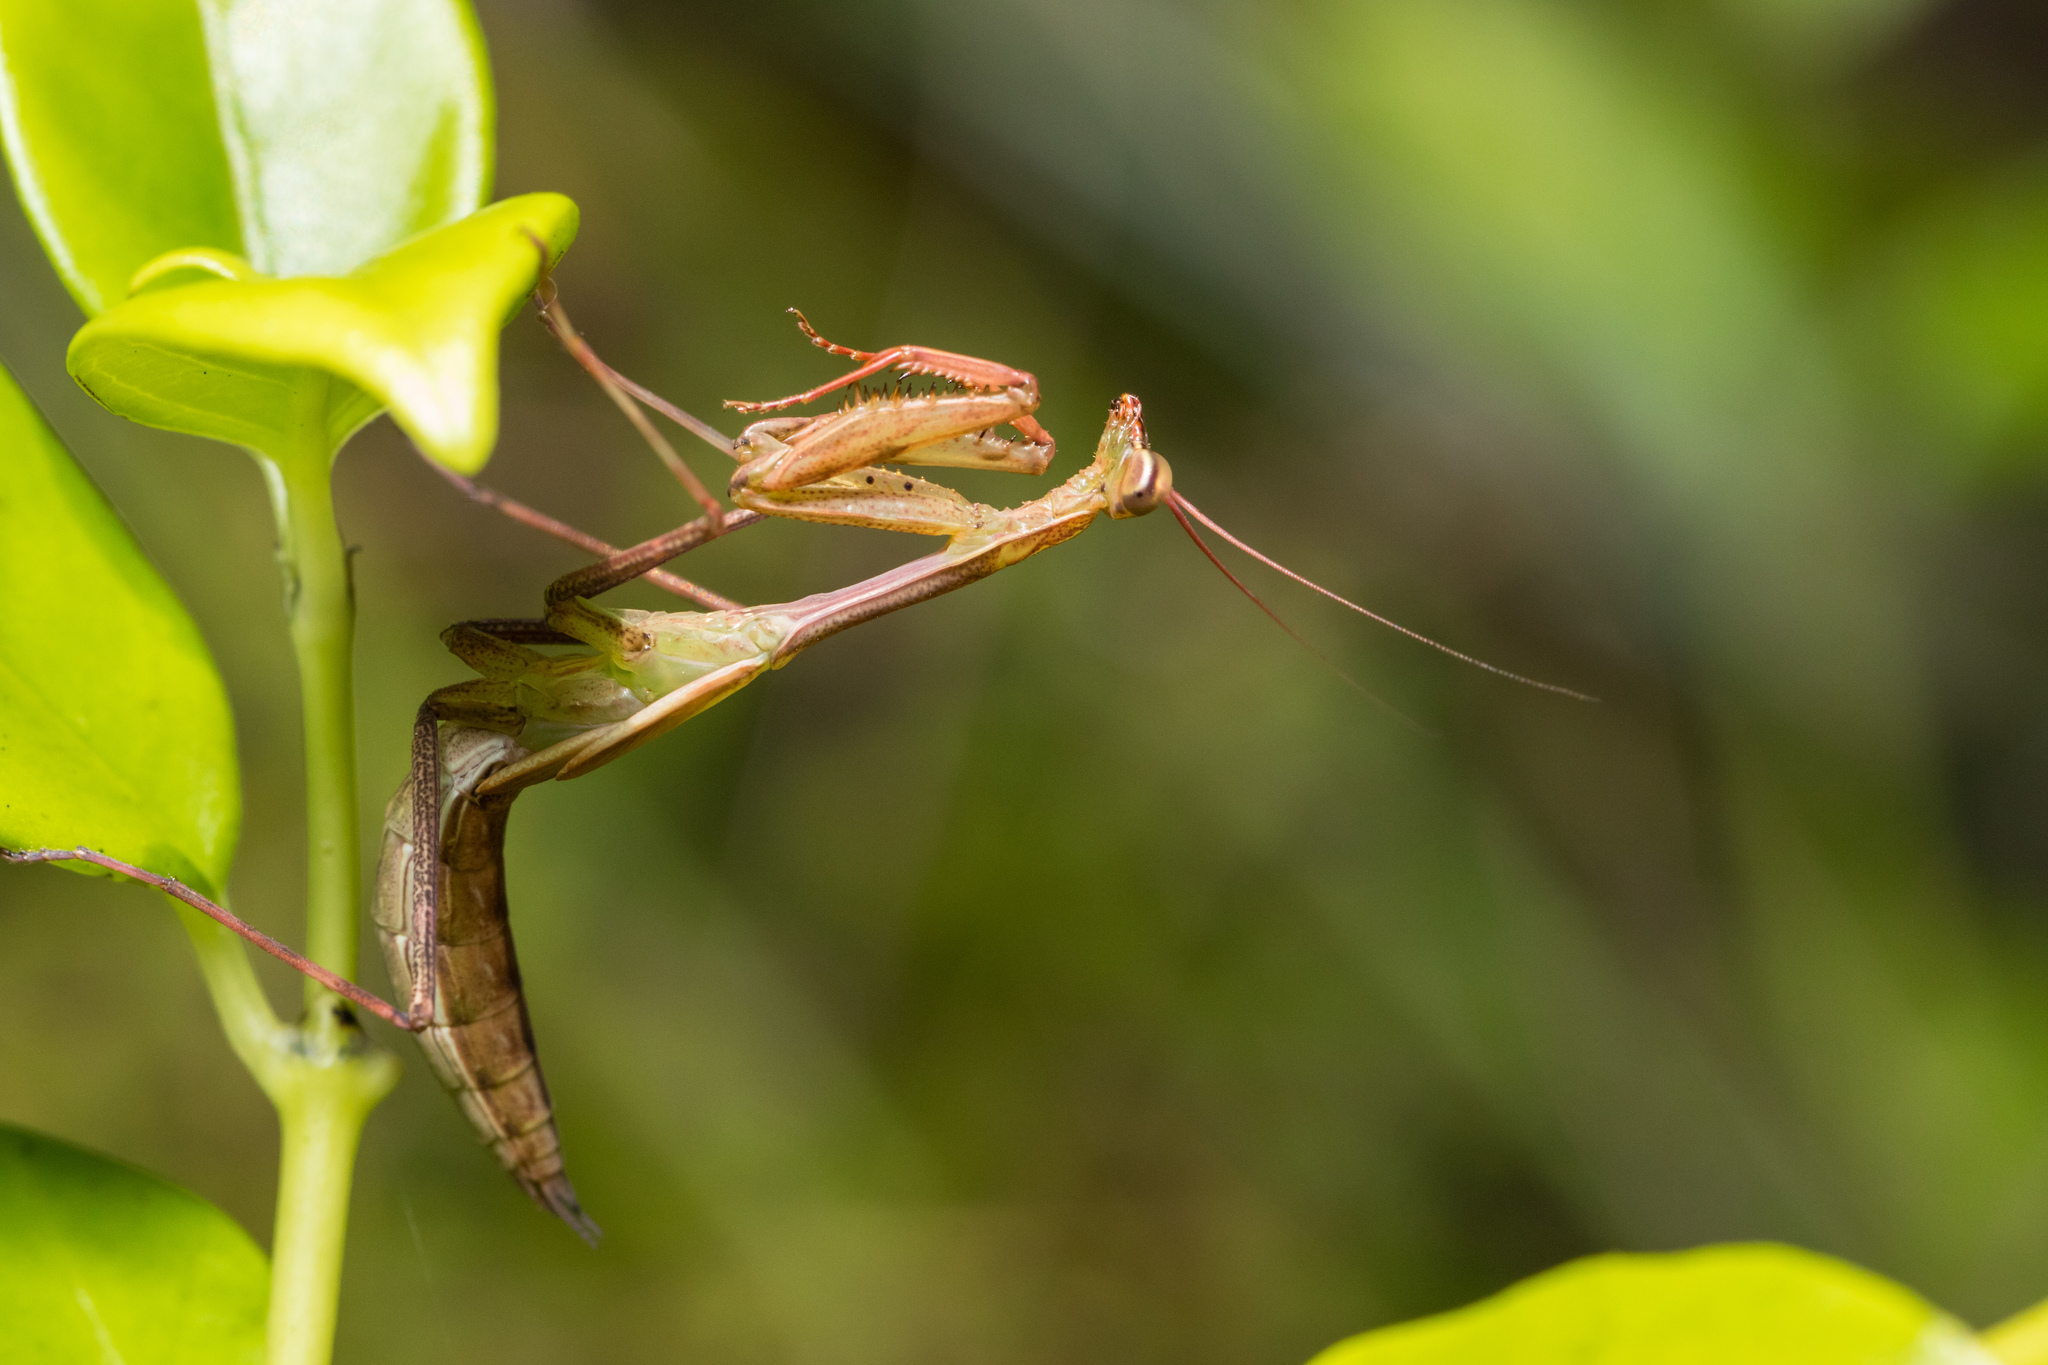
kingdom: Animalia
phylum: Arthropoda
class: Insecta
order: Mantodea
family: Miomantidae
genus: Miomantis
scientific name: Miomantis caffra
